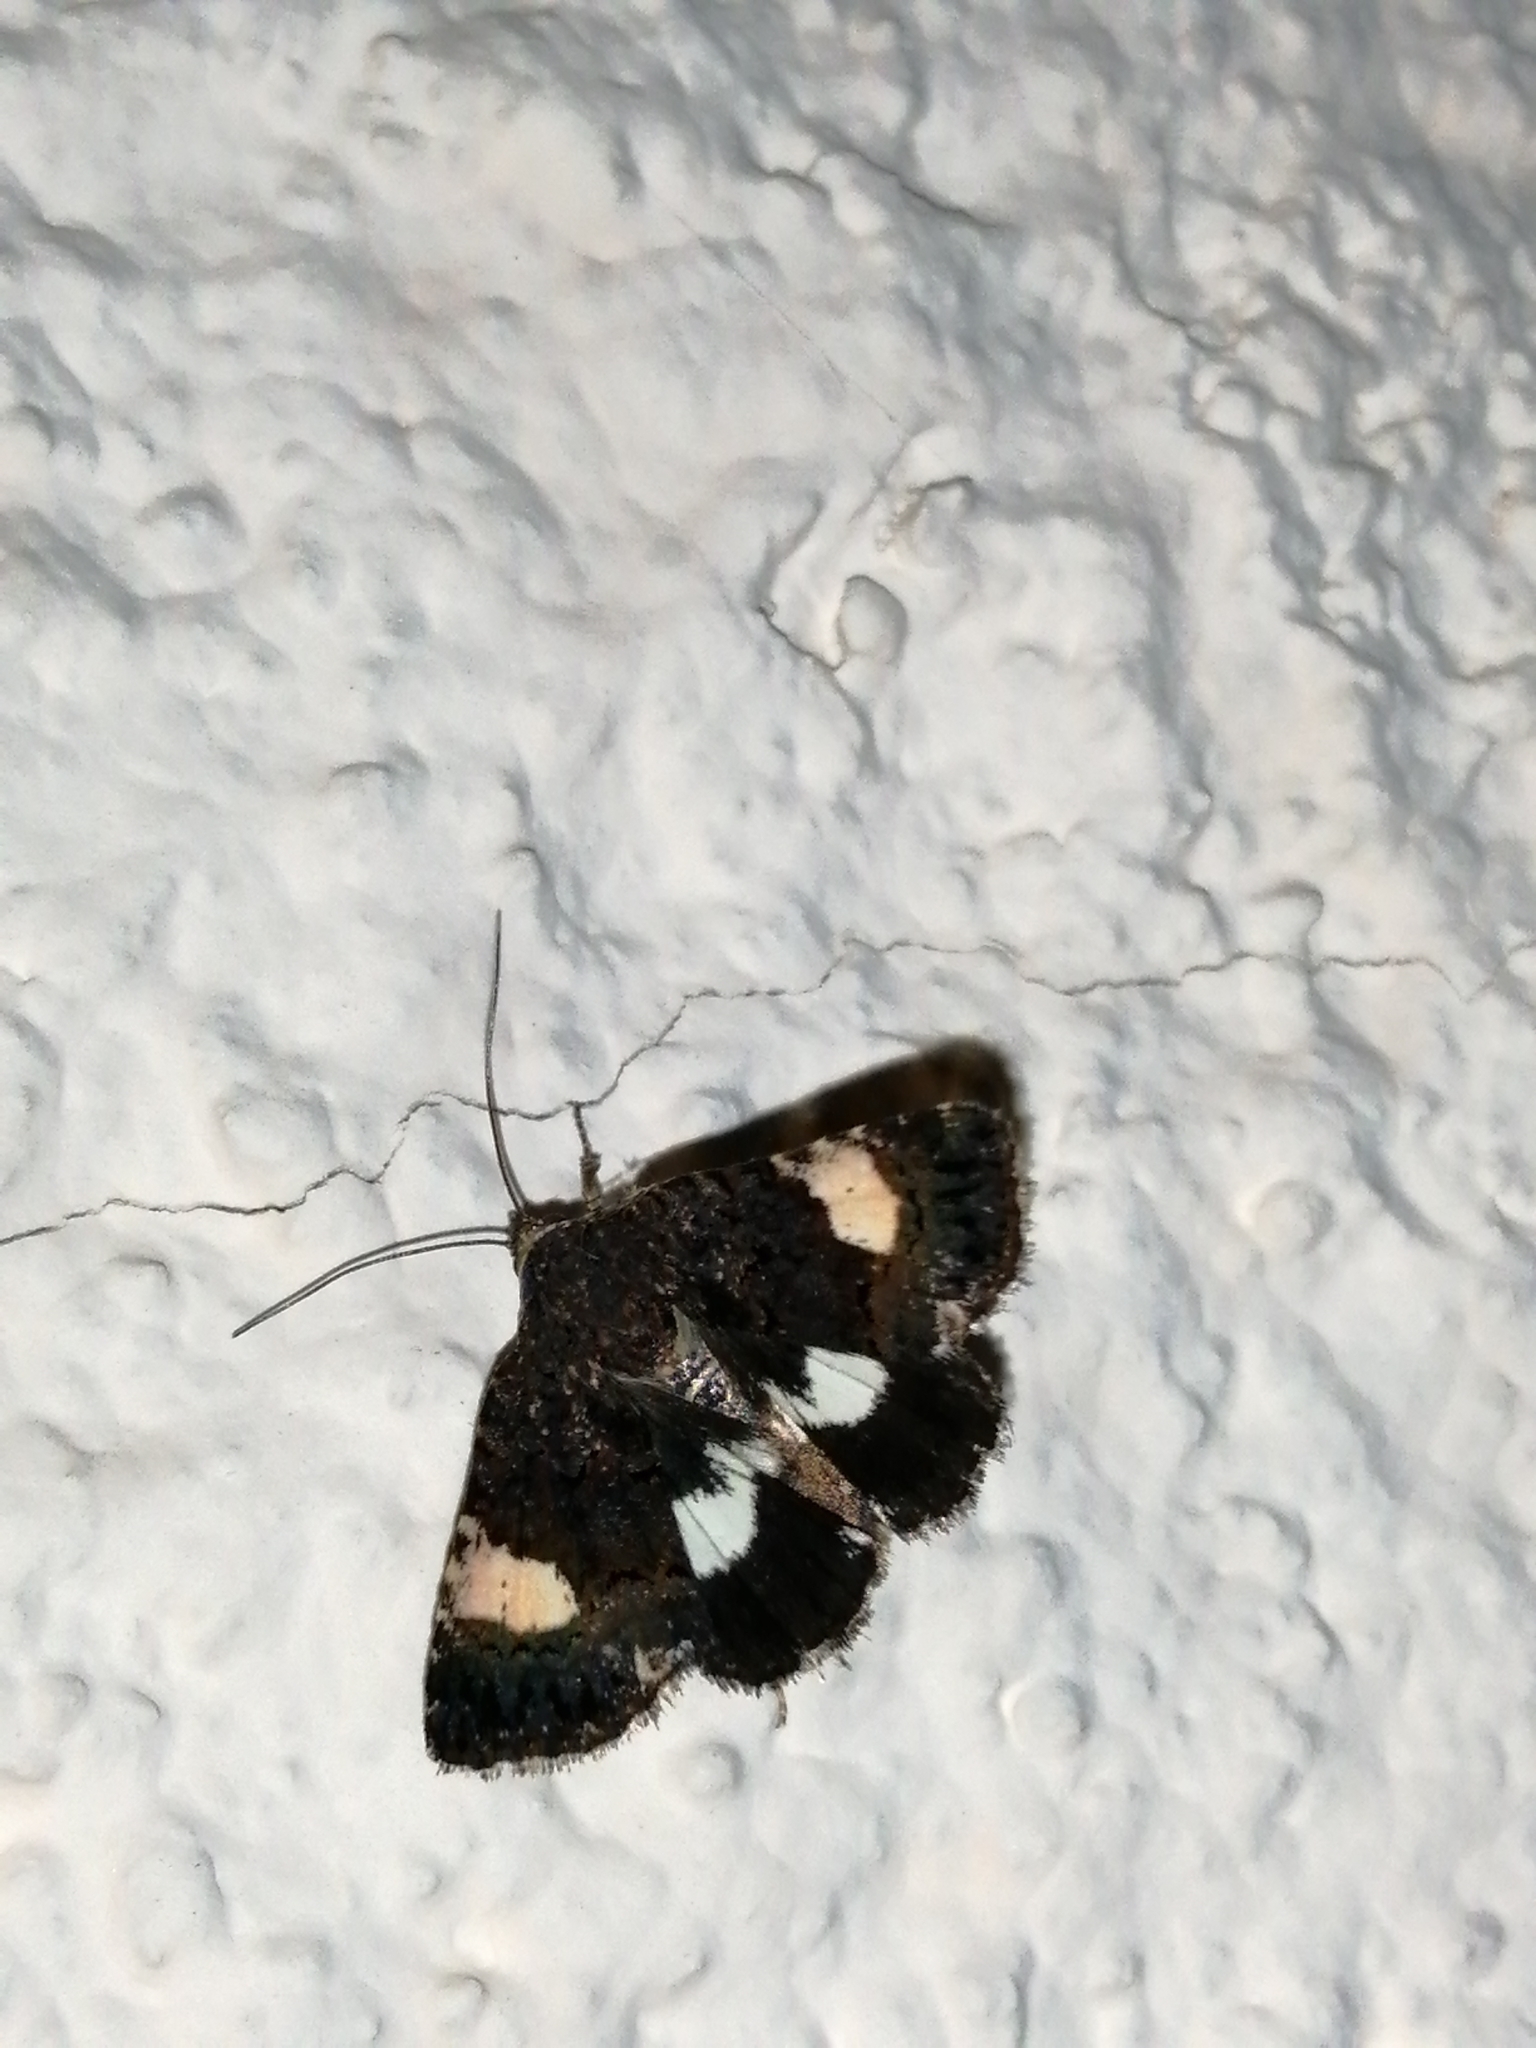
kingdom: Animalia
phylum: Arthropoda
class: Insecta
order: Lepidoptera
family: Erebidae
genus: Tyta
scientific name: Tyta luctuosa
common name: Four-spotted
